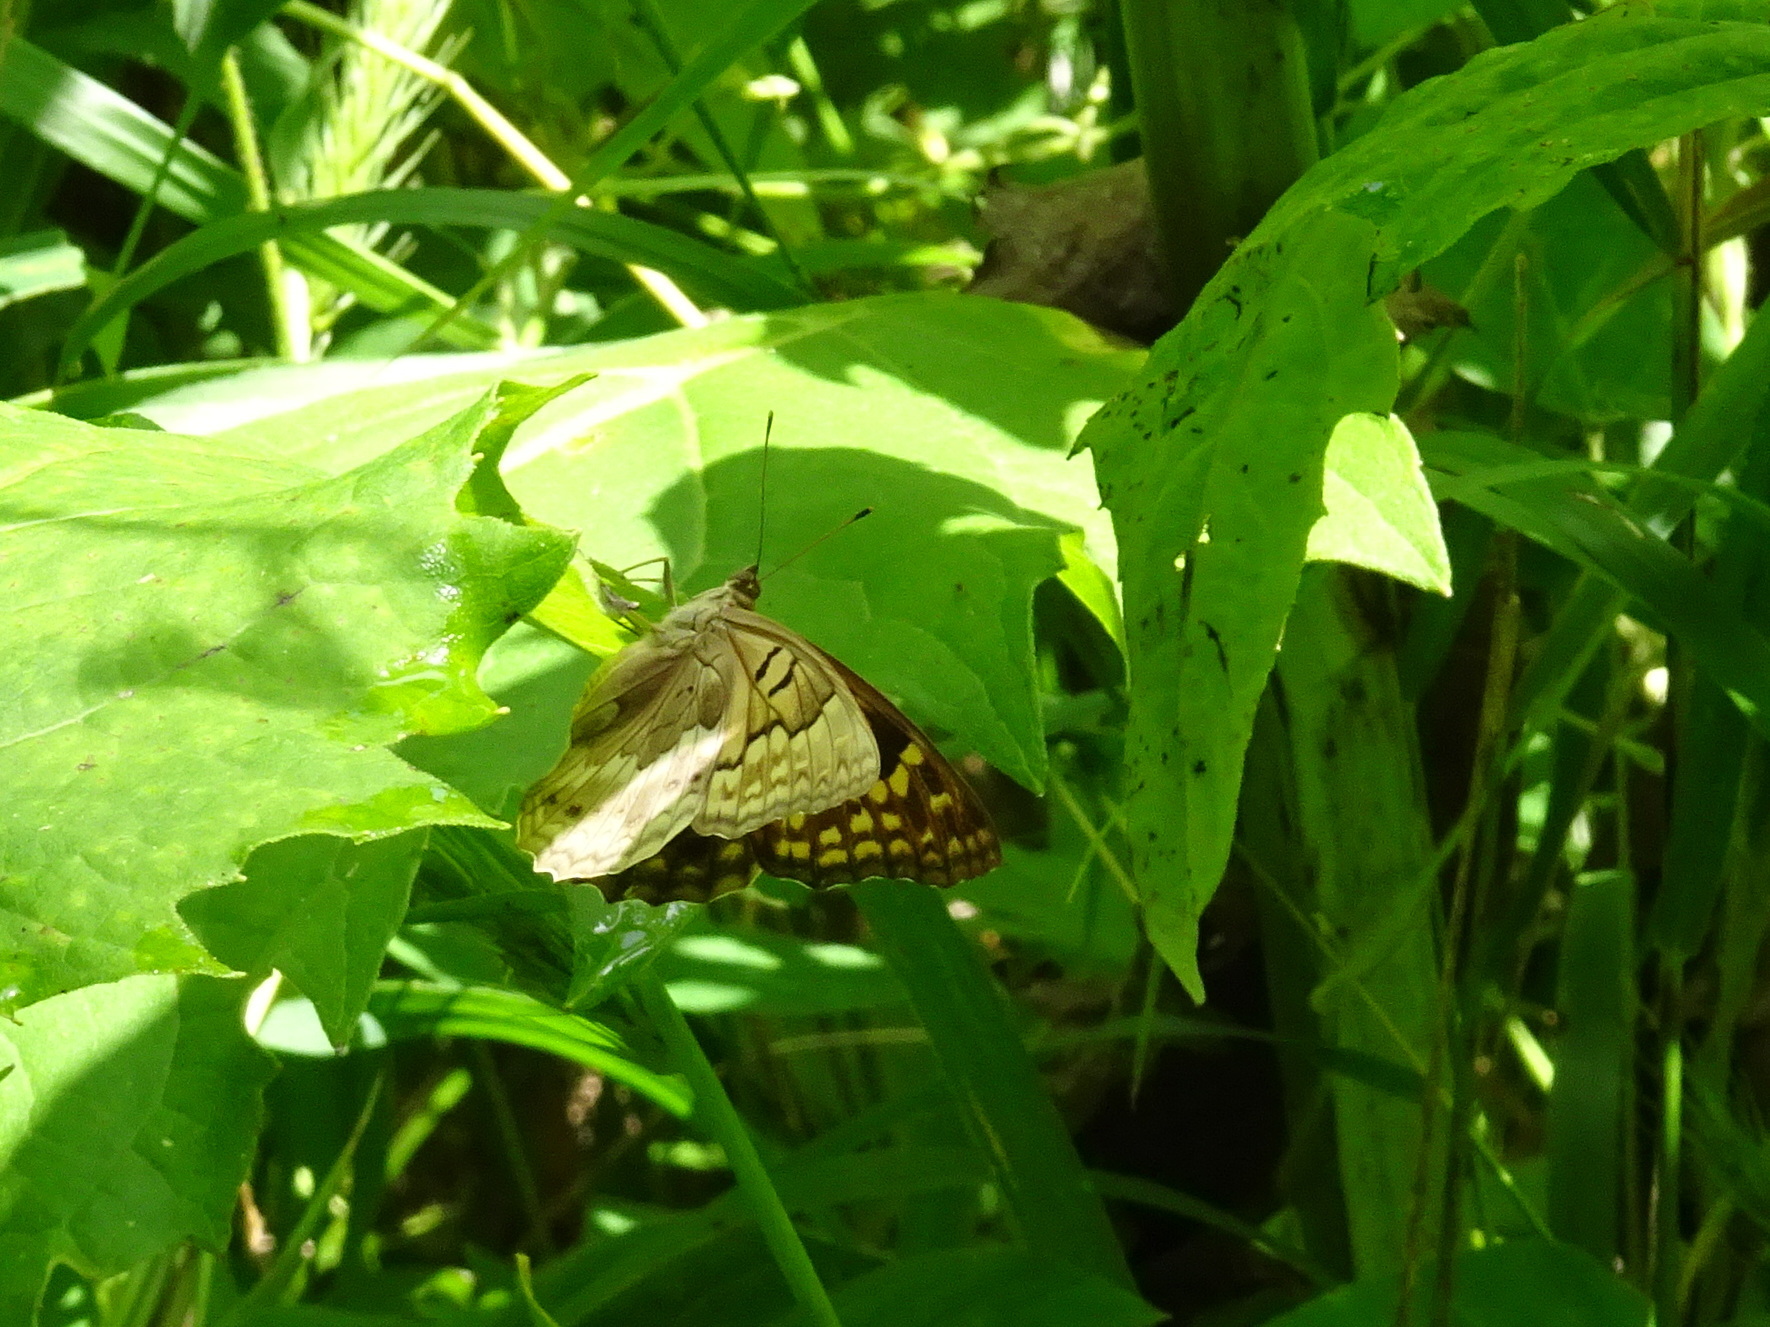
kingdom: Animalia
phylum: Arthropoda
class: Insecta
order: Lepidoptera
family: Nymphalidae
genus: Asterocampa
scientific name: Asterocampa clyton
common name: Tawny emperor
